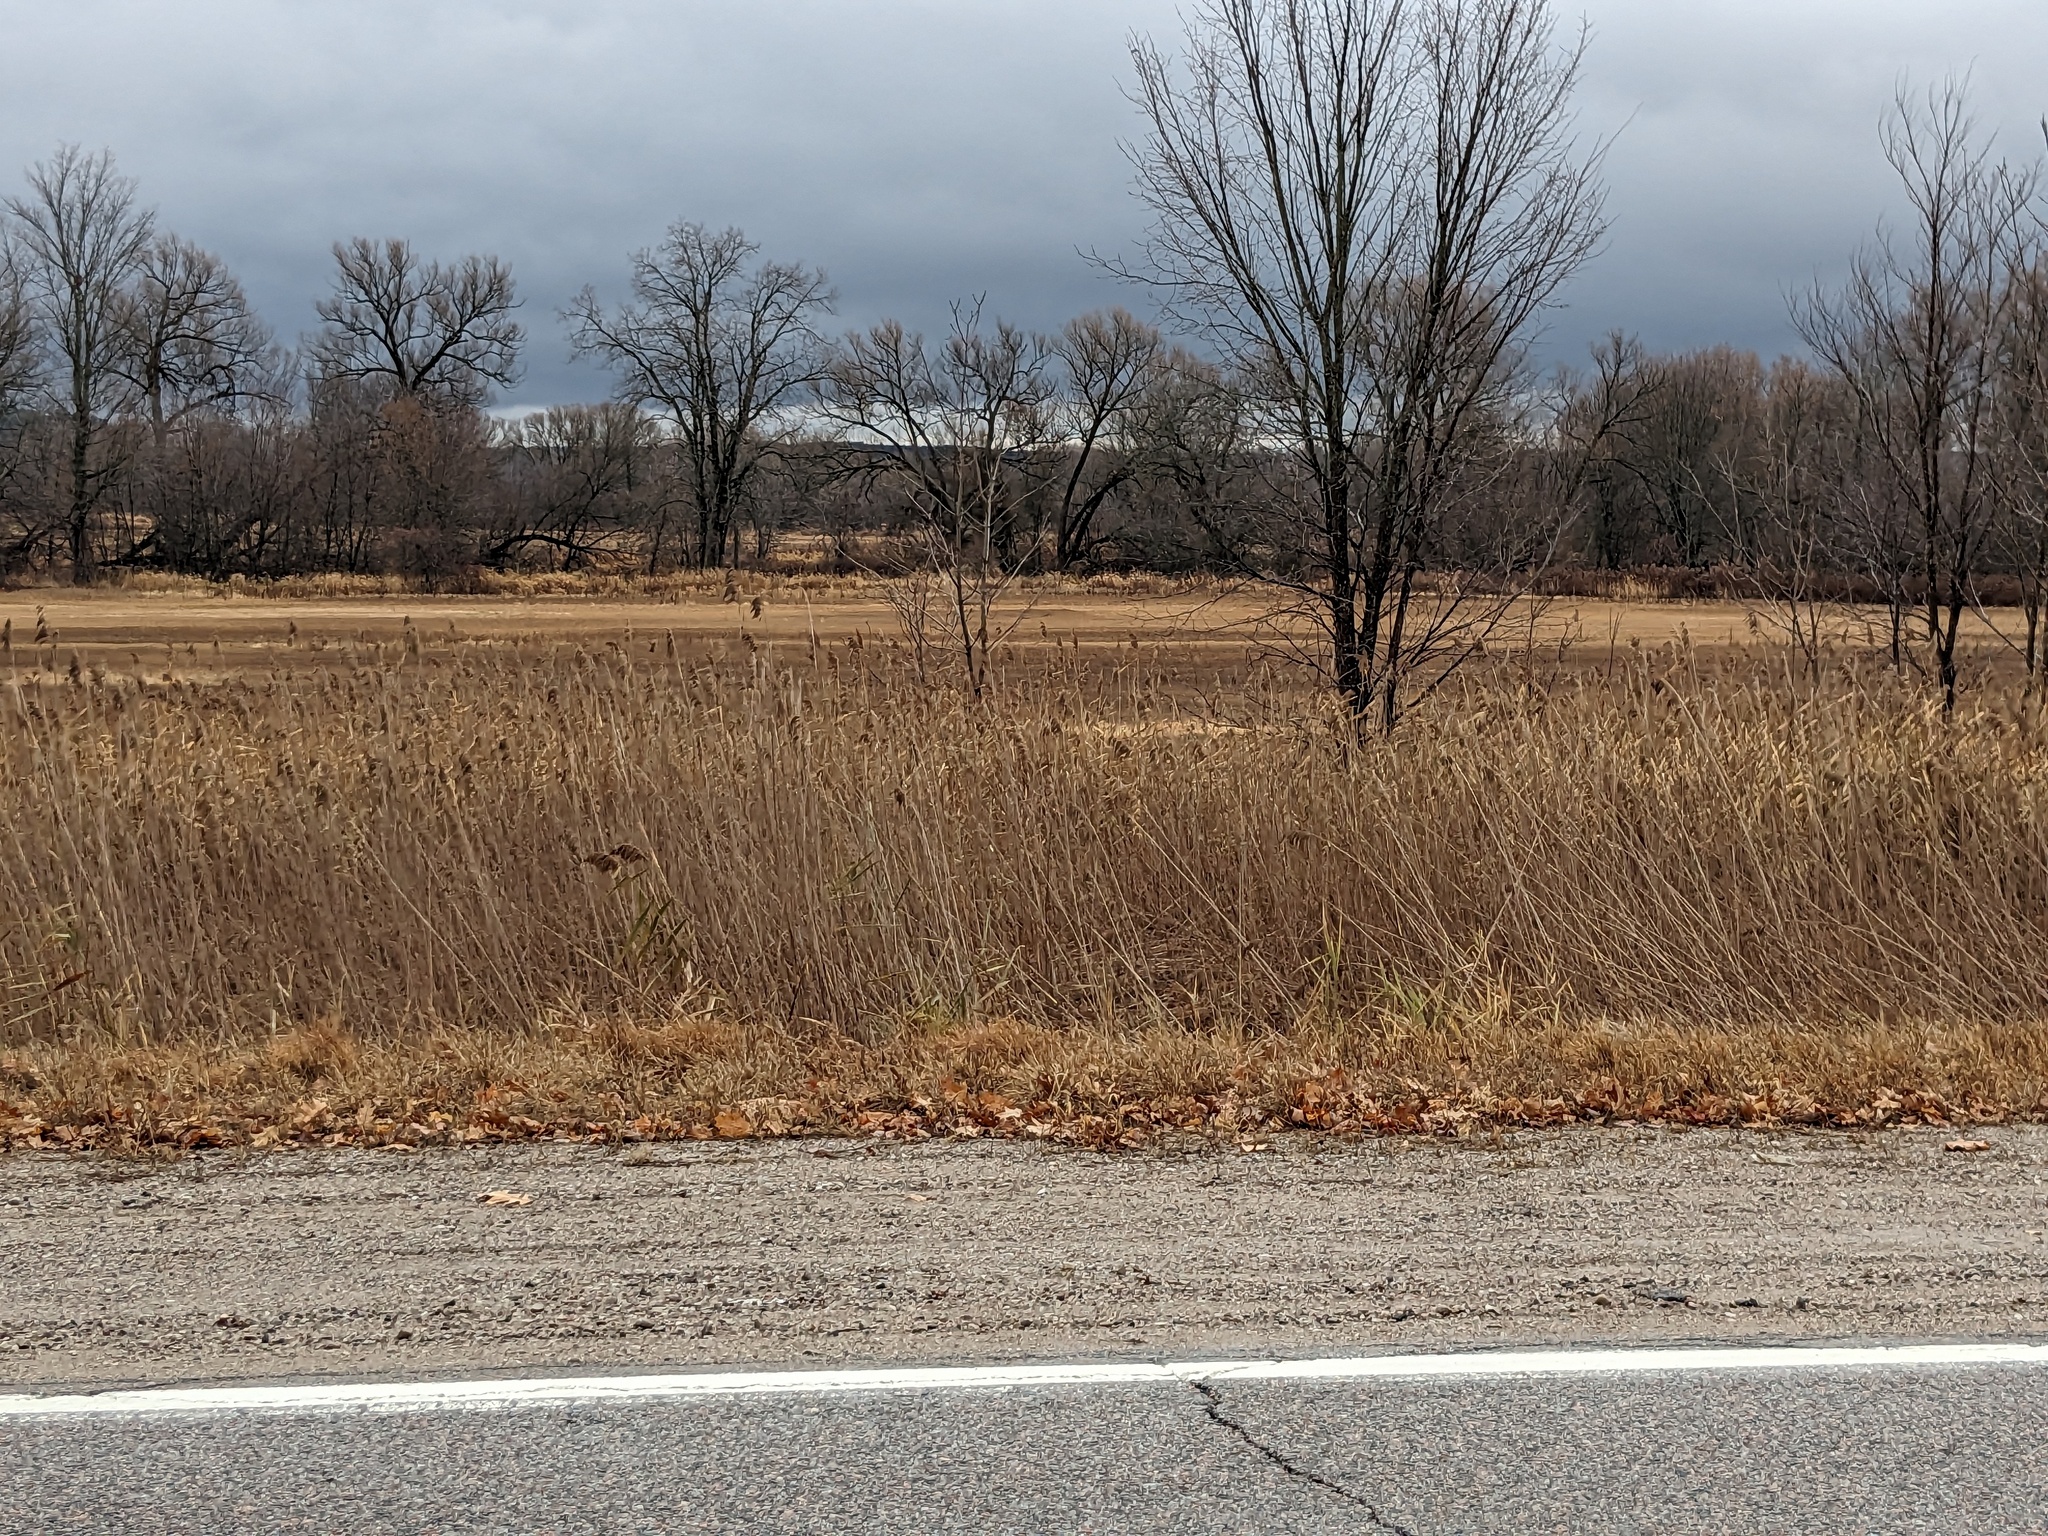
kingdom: Plantae
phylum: Tracheophyta
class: Liliopsida
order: Poales
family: Poaceae
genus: Phragmites
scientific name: Phragmites australis
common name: Common reed
